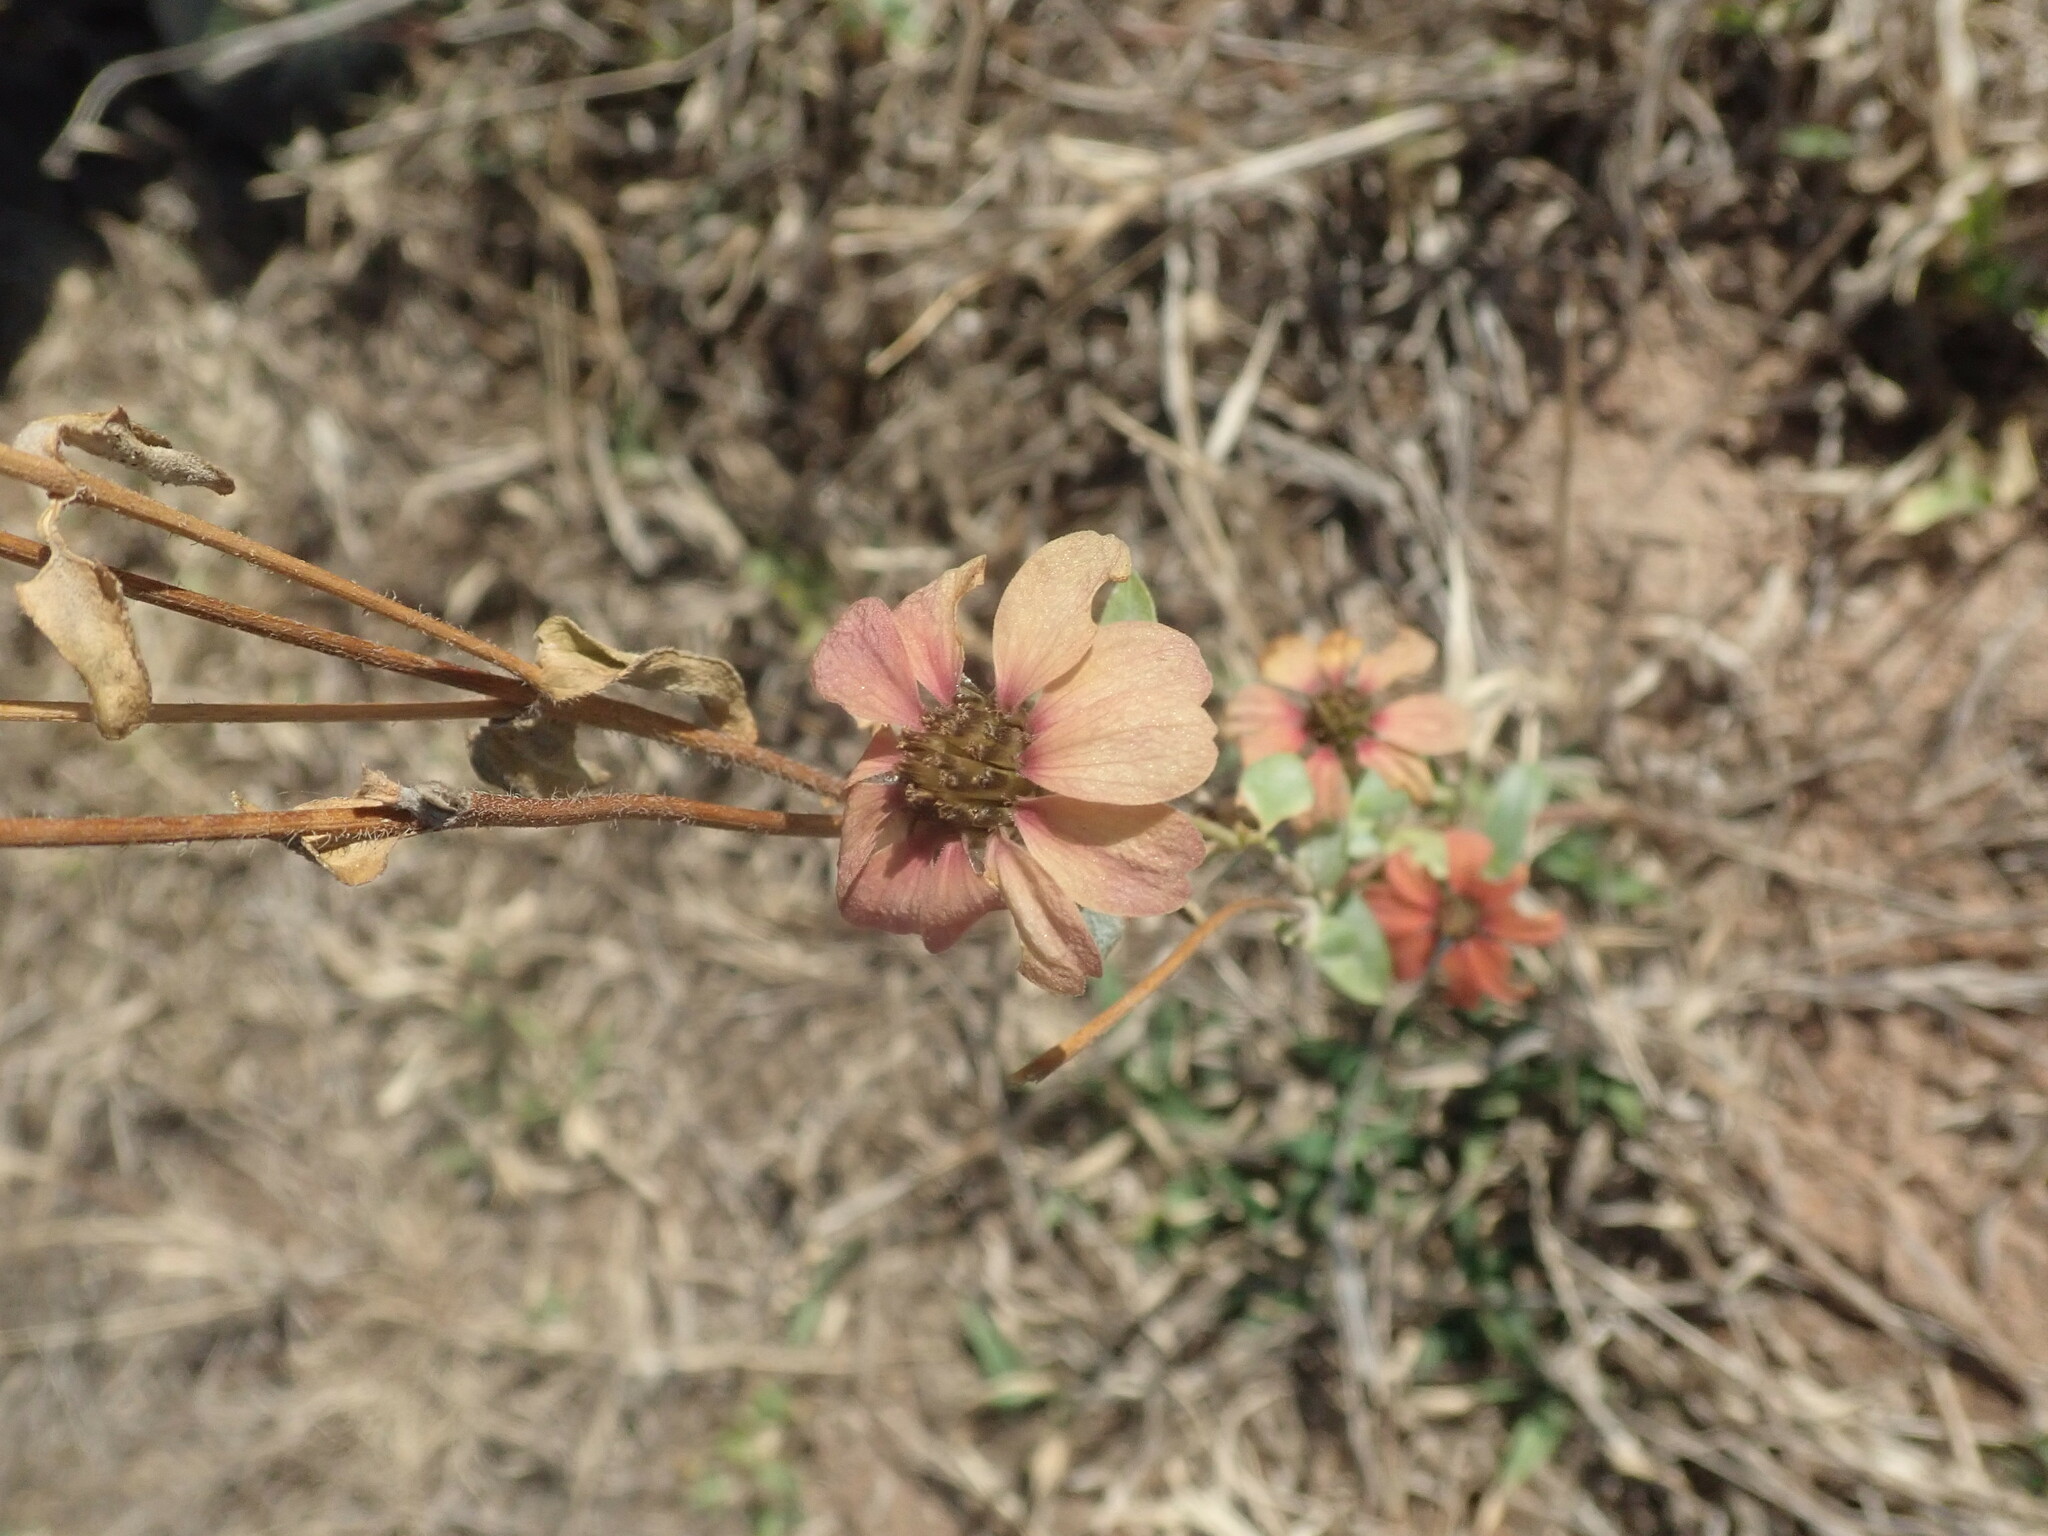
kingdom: Plantae
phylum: Tracheophyta
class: Magnoliopsida
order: Asterales
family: Asteraceae
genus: Zinnia
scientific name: Zinnia peruviana
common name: Peruvian zinnia
